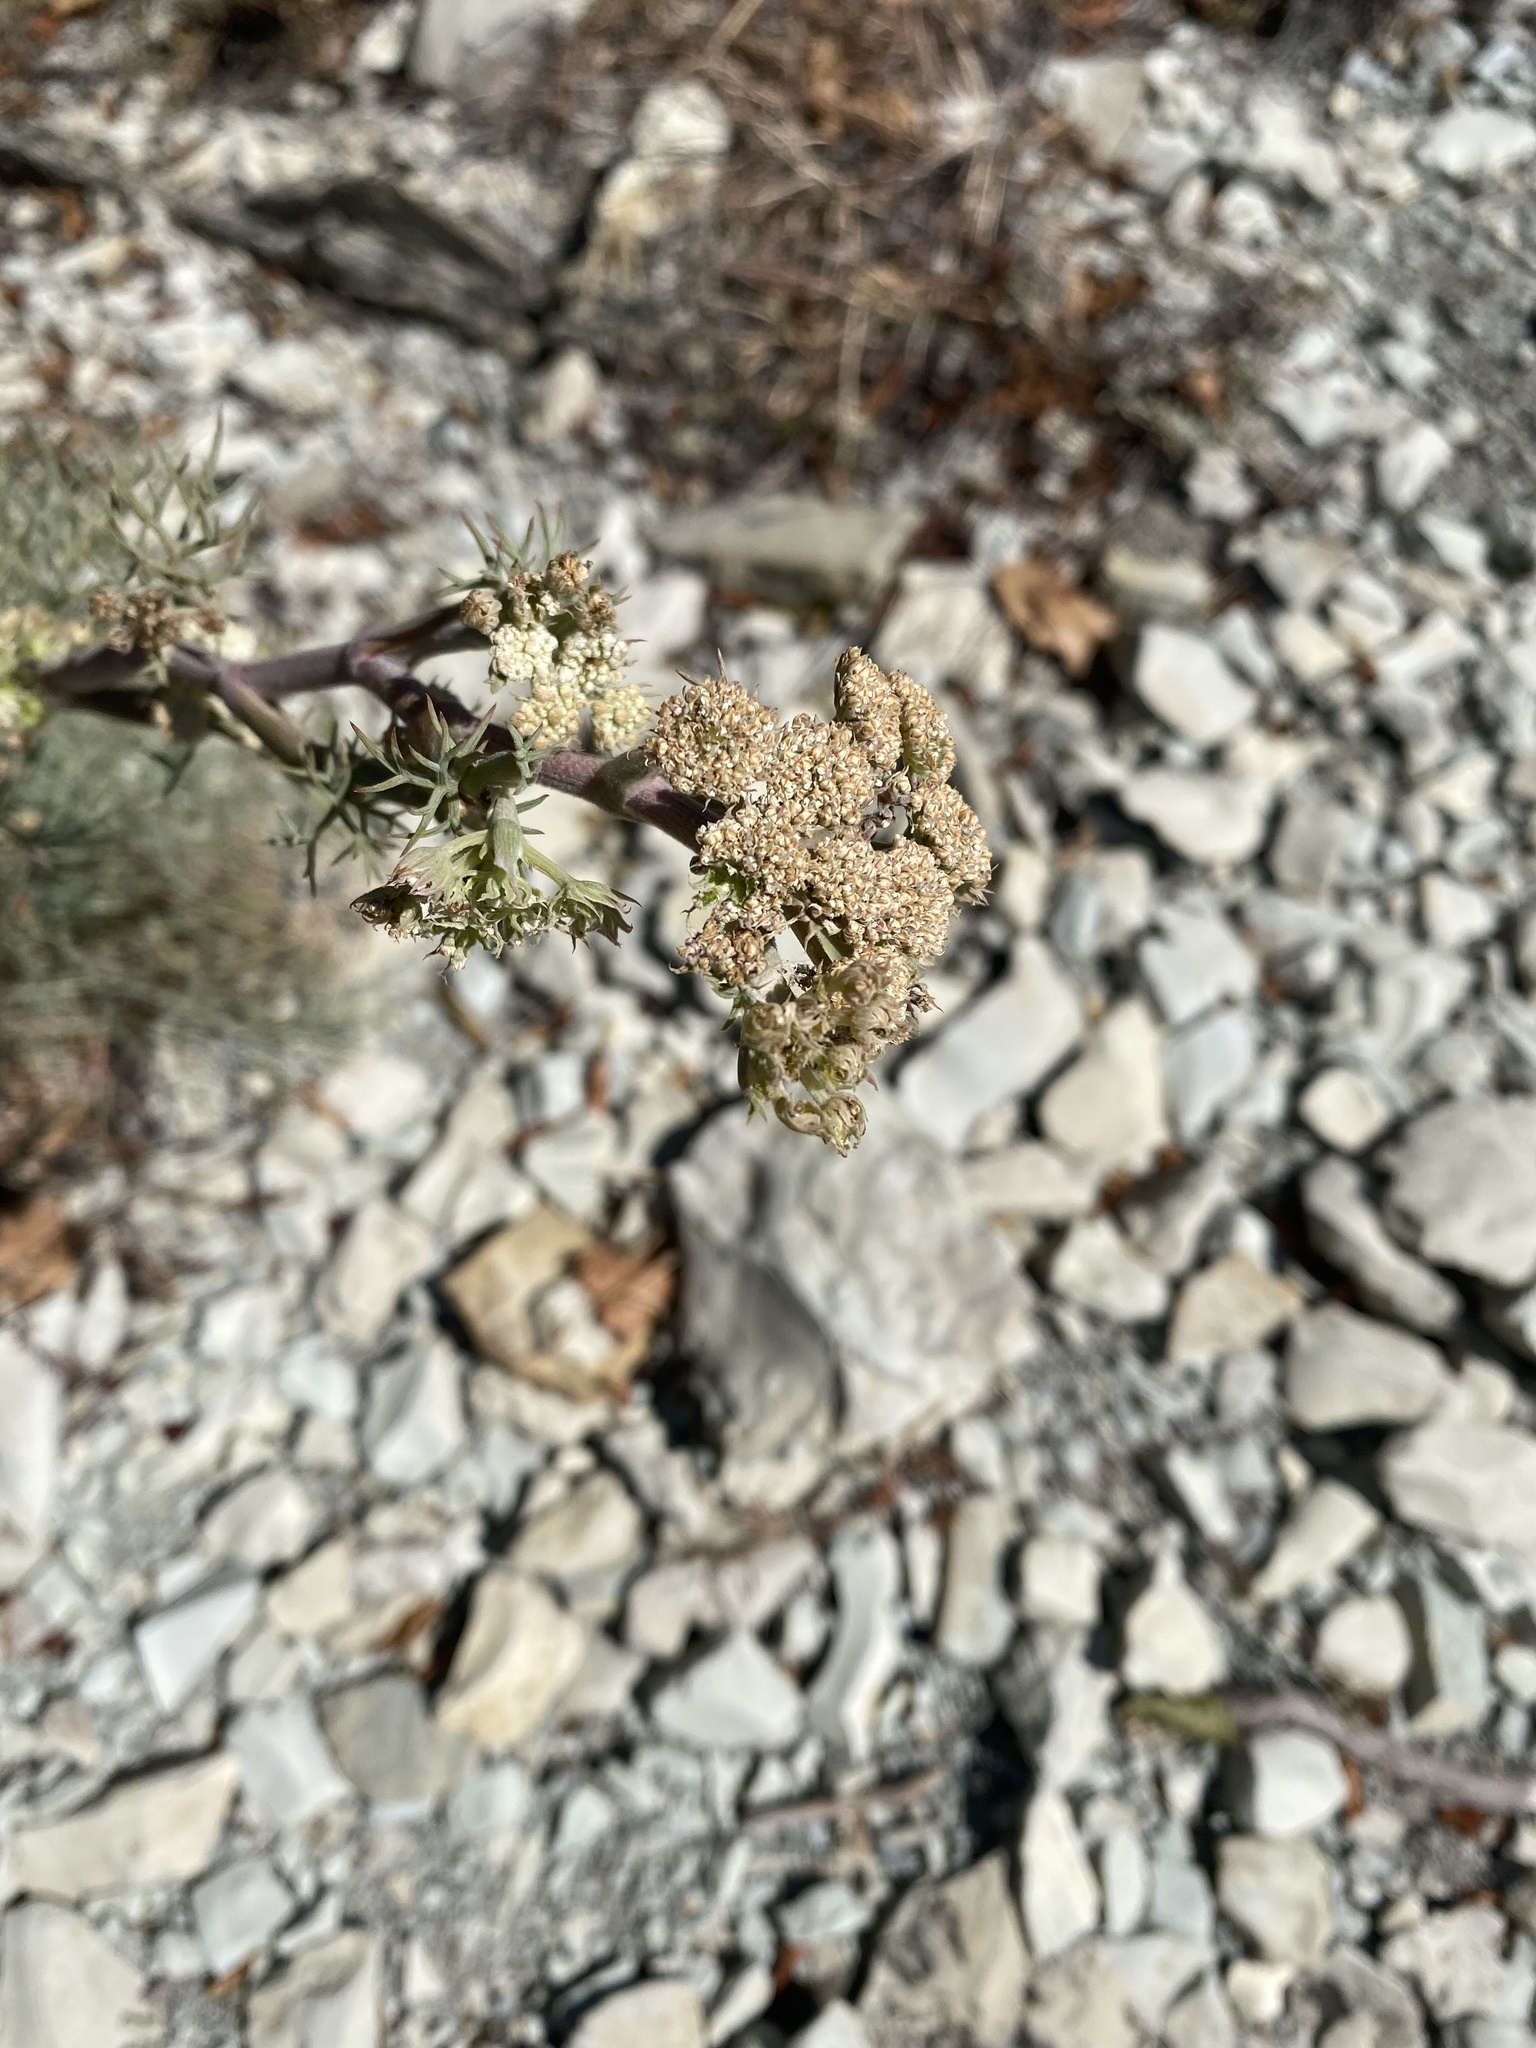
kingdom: Plantae
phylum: Tracheophyta
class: Magnoliopsida
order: Apiales
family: Apiaceae
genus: Seseli
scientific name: Seseli ponticum
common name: Pontic seseli
